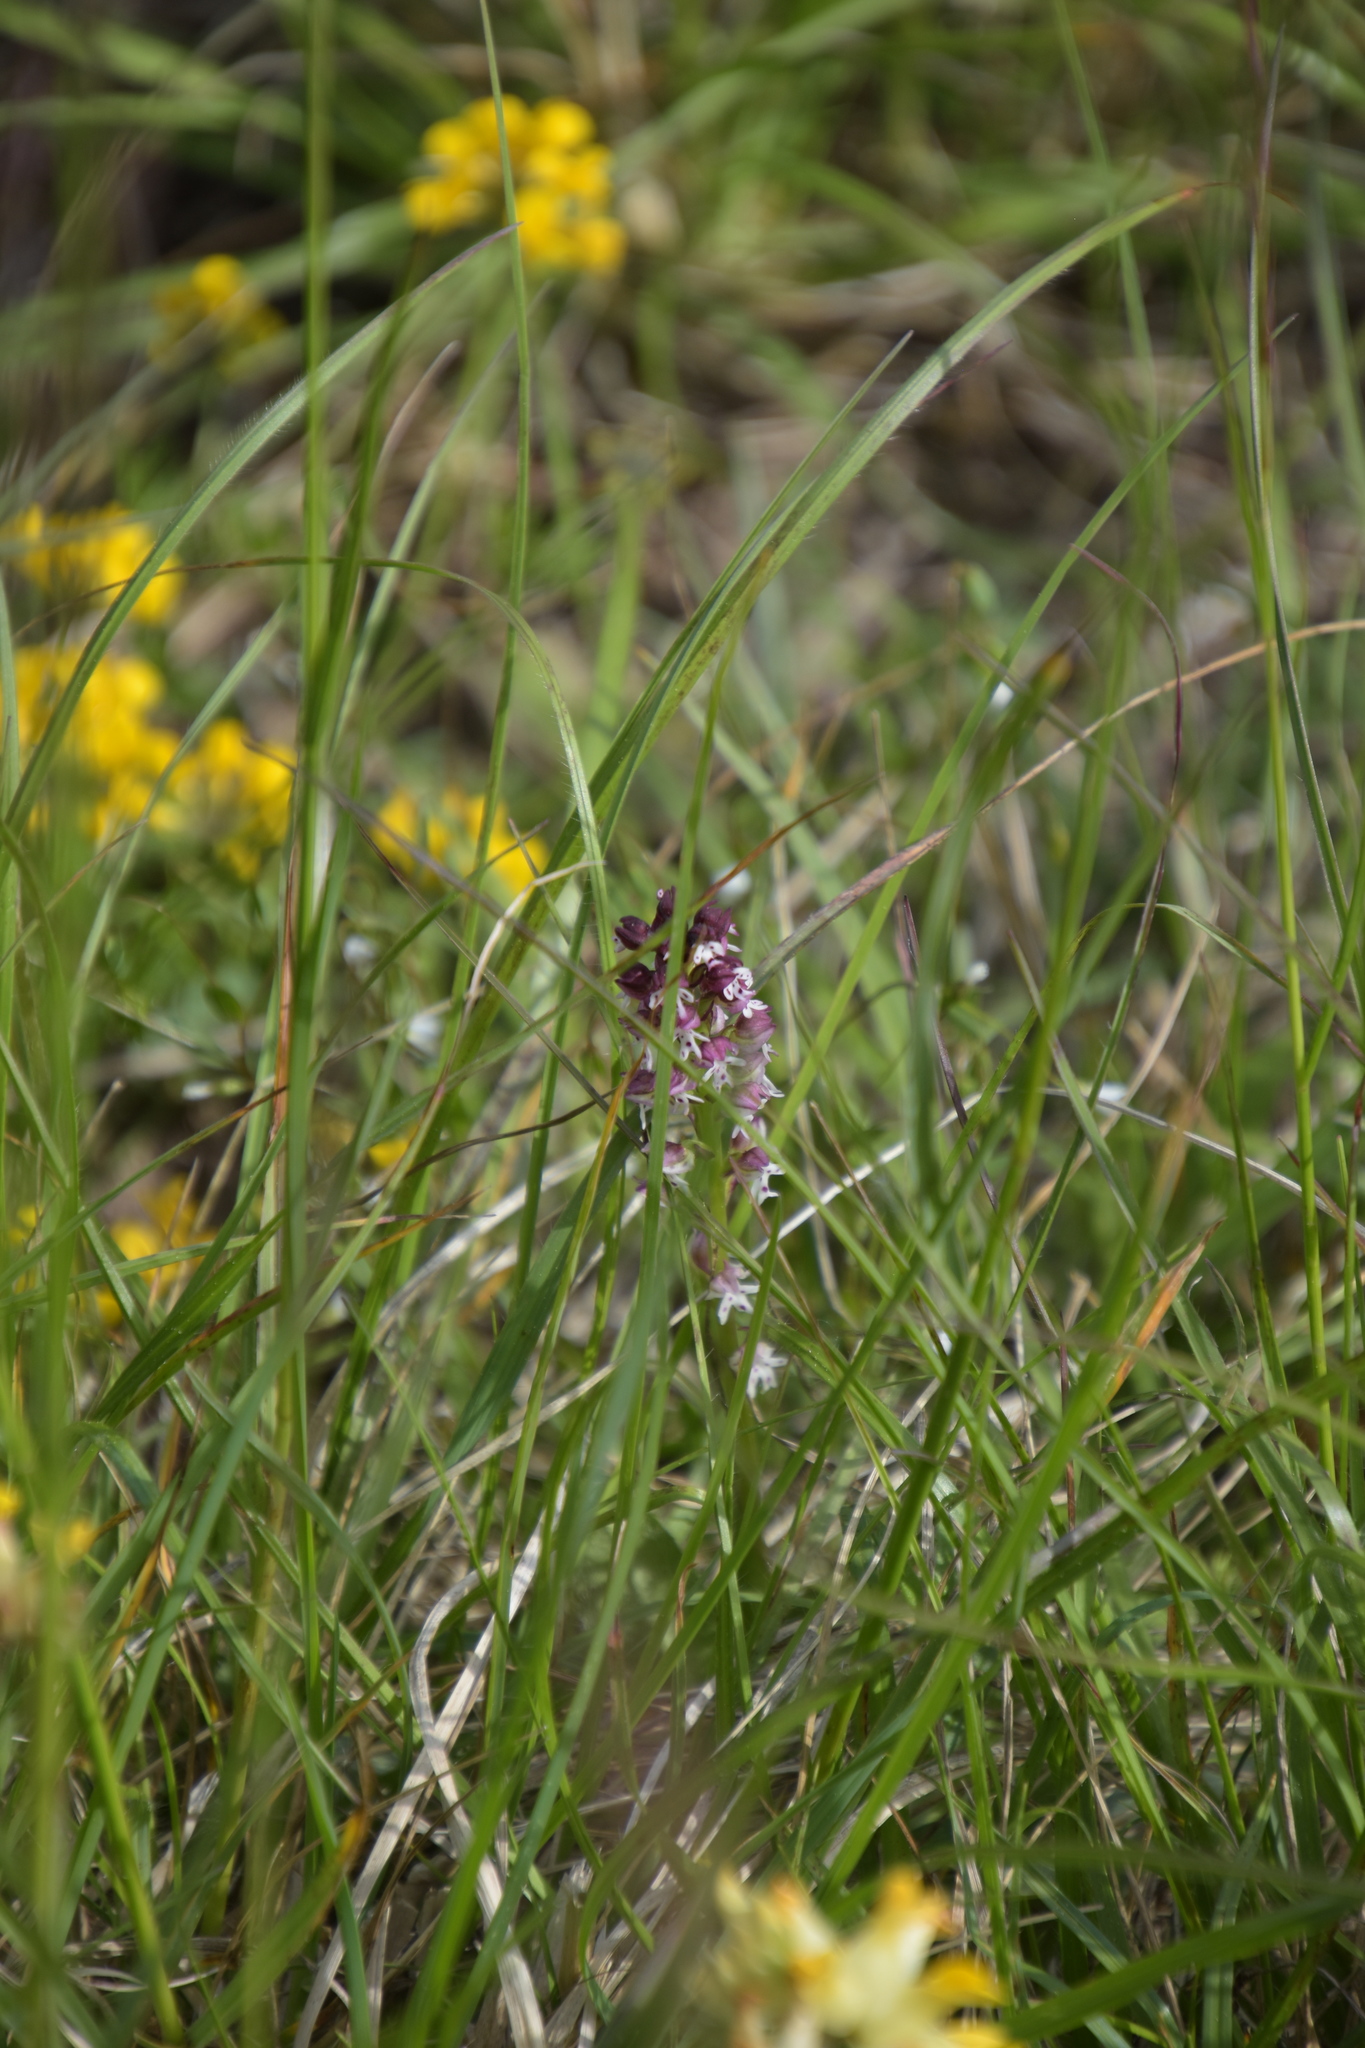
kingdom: Plantae
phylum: Tracheophyta
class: Liliopsida
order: Asparagales
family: Orchidaceae
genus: Neotinea
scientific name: Neotinea ustulata
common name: Burnt orchid
